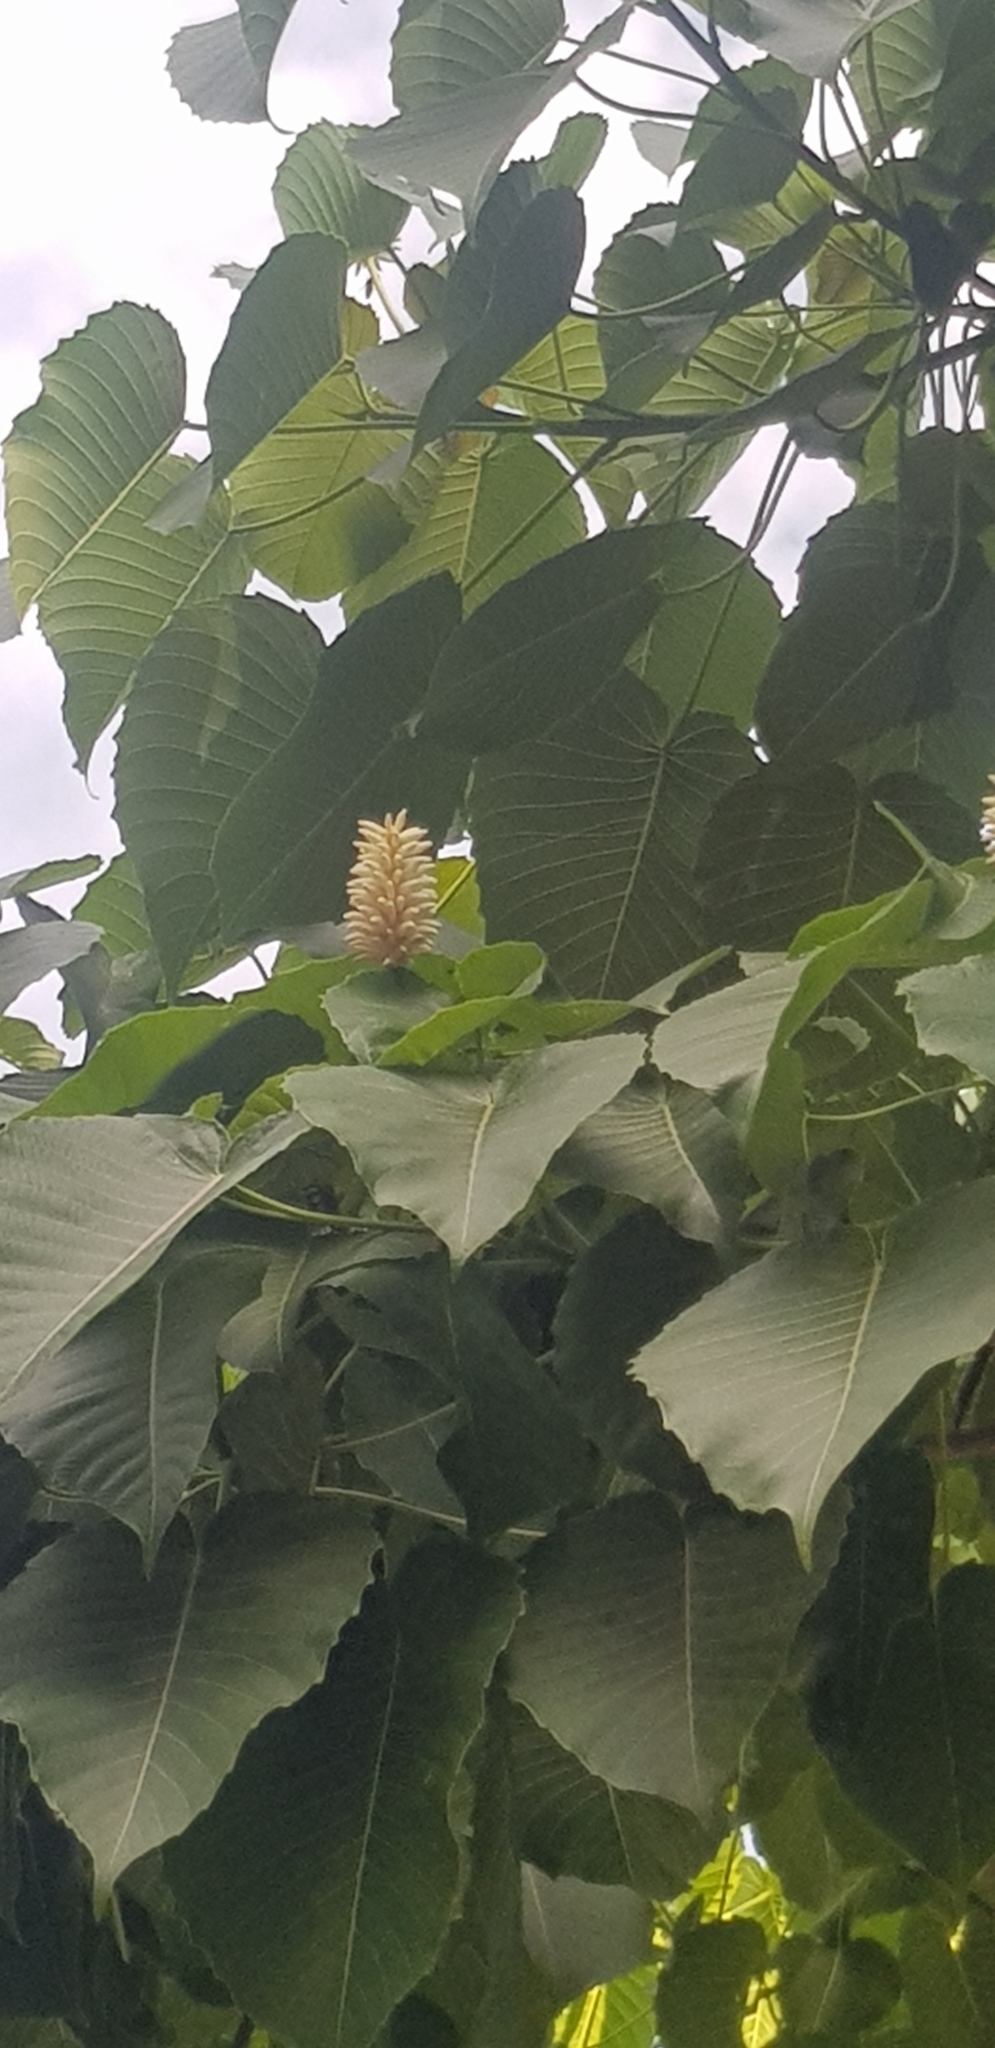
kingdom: Plantae
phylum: Tracheophyta
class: Magnoliopsida
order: Malpighiales
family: Euphorbiaceae
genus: Hura
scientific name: Hura polyandra
